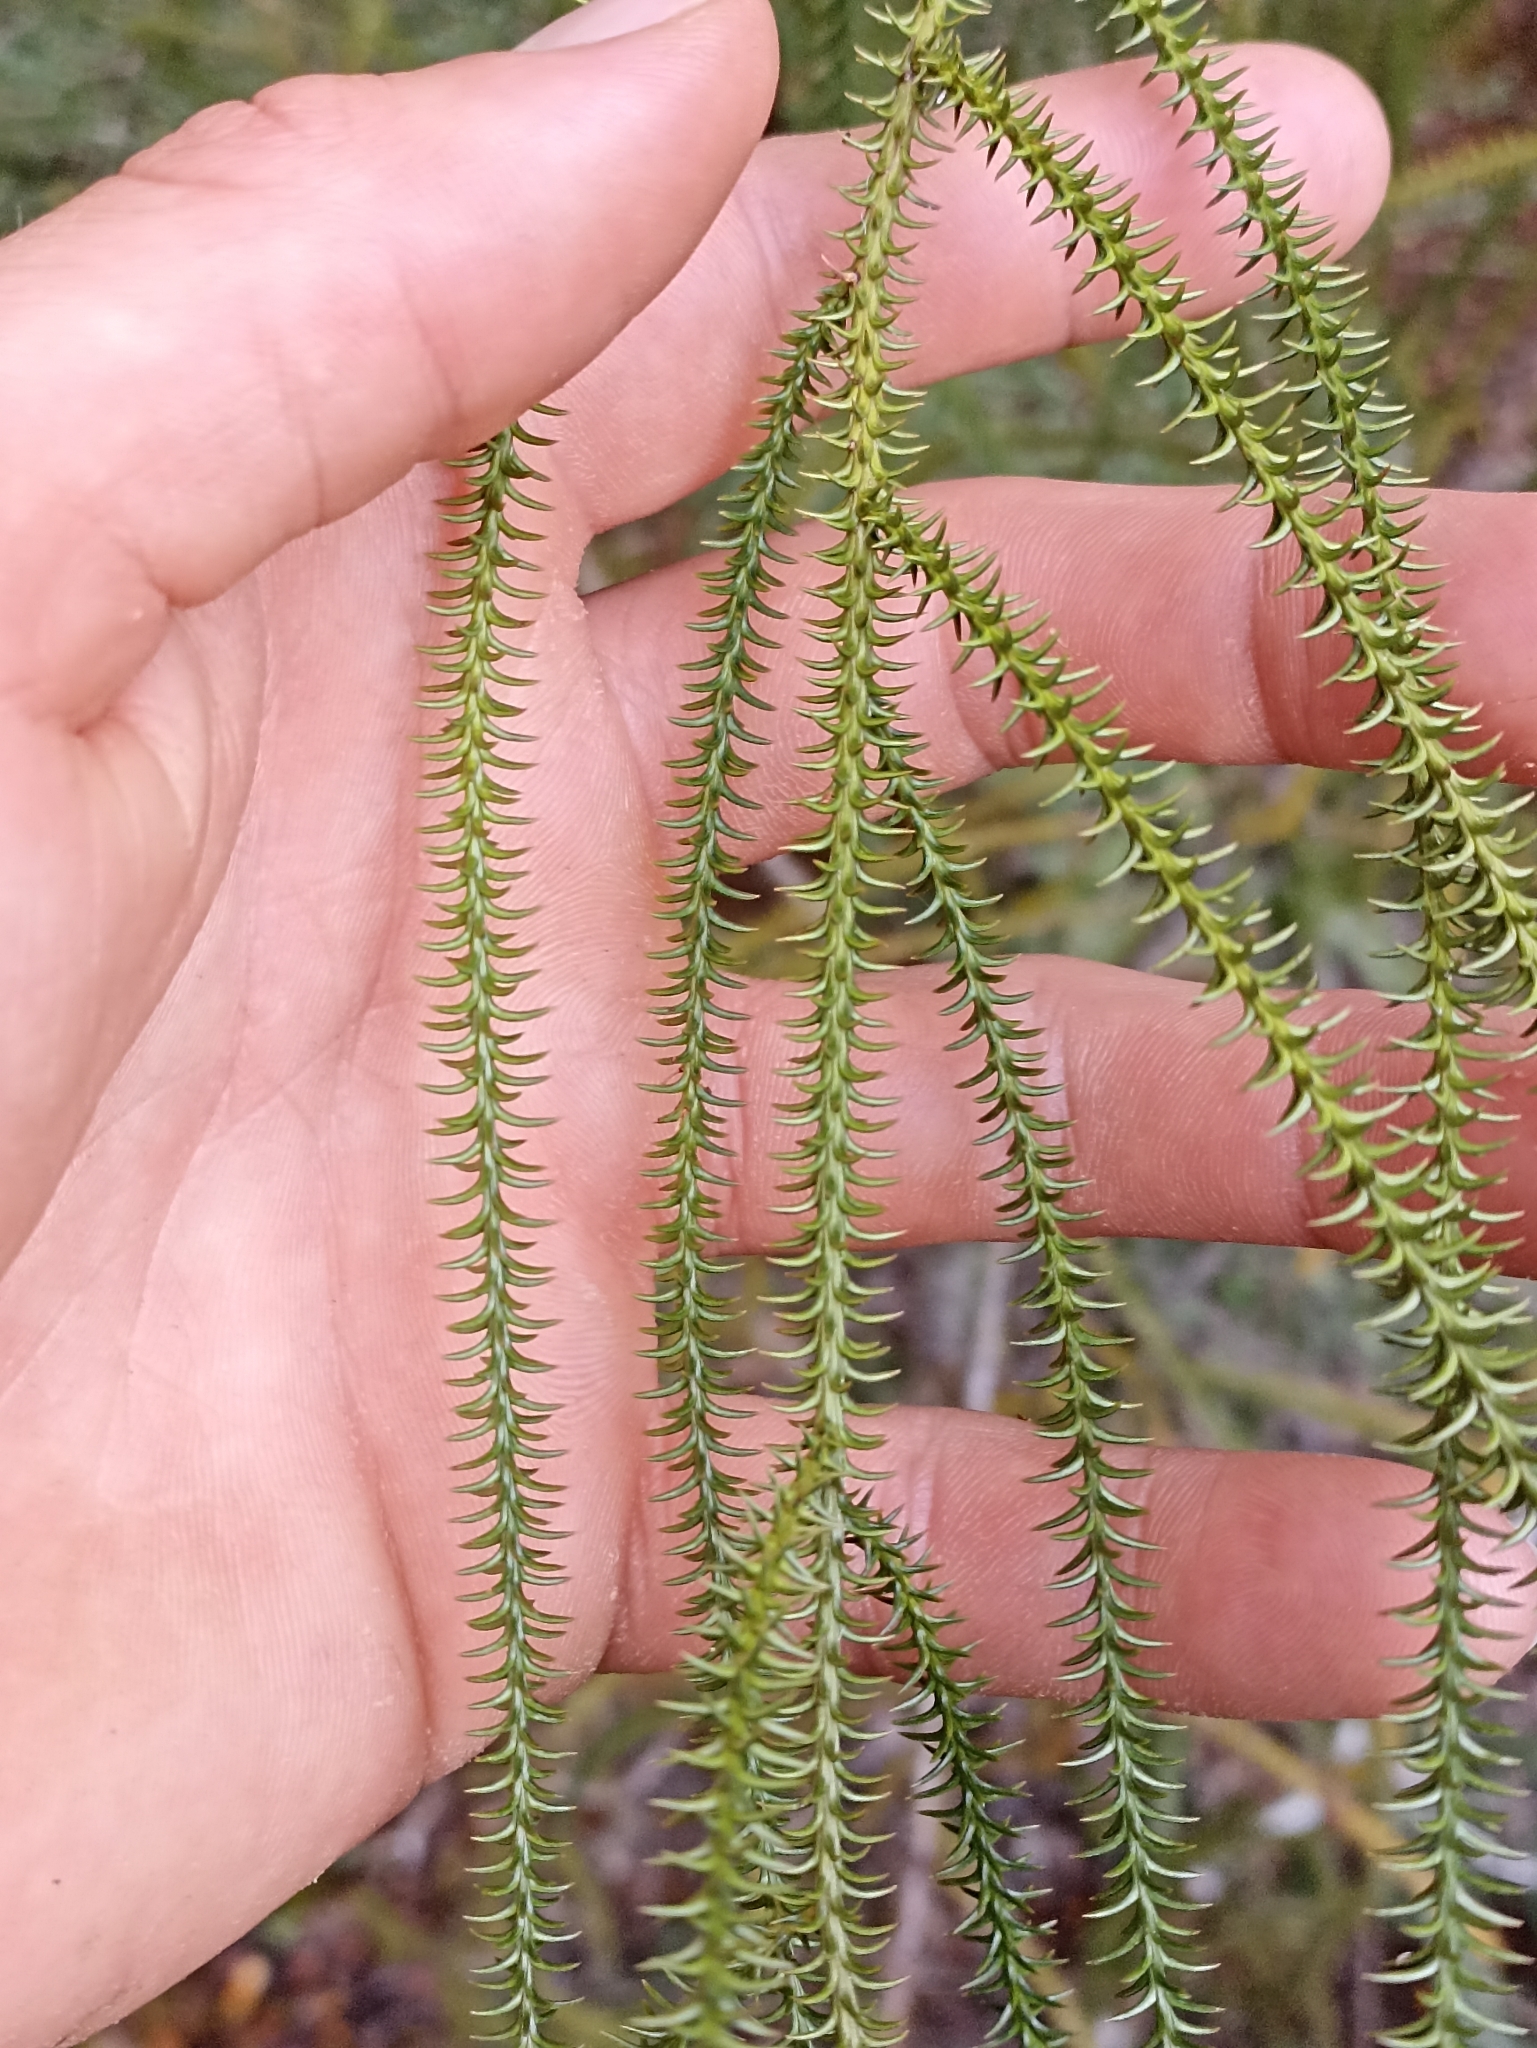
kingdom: Plantae
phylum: Tracheophyta
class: Pinopsida
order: Pinales
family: Podocarpaceae
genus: Dacrydium
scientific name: Dacrydium cupressinum
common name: Red pine
